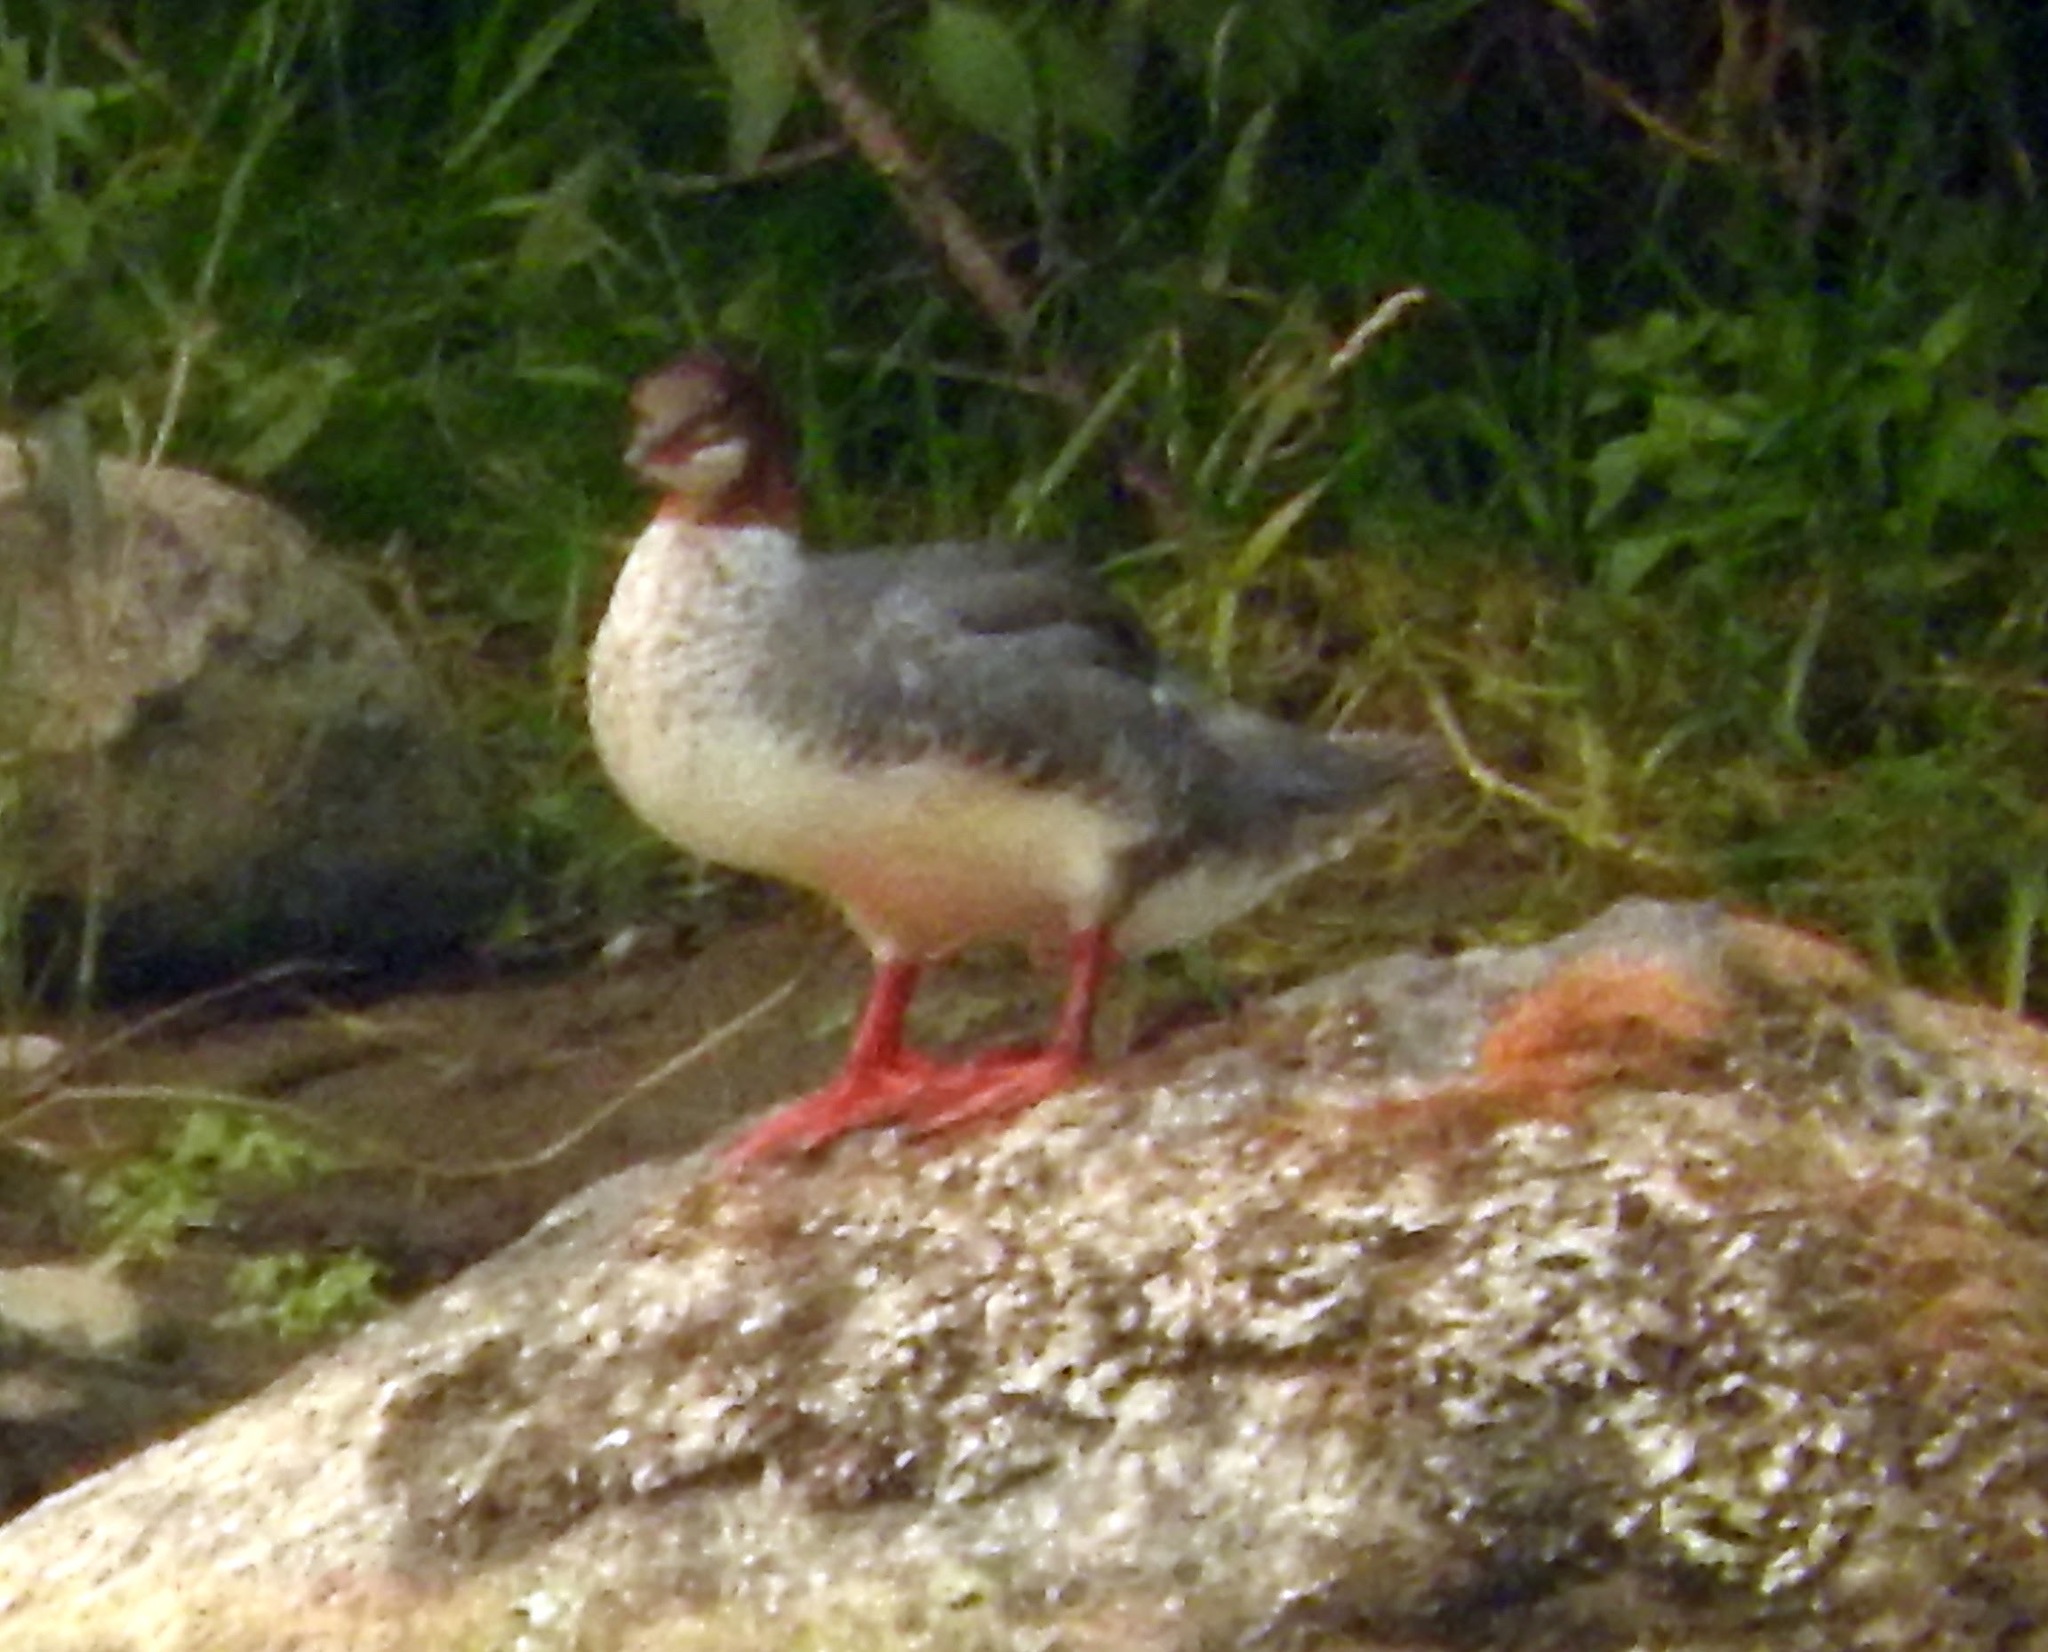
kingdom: Animalia
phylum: Chordata
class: Aves
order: Anseriformes
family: Anatidae
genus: Mergus
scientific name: Mergus merganser
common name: Common merganser
